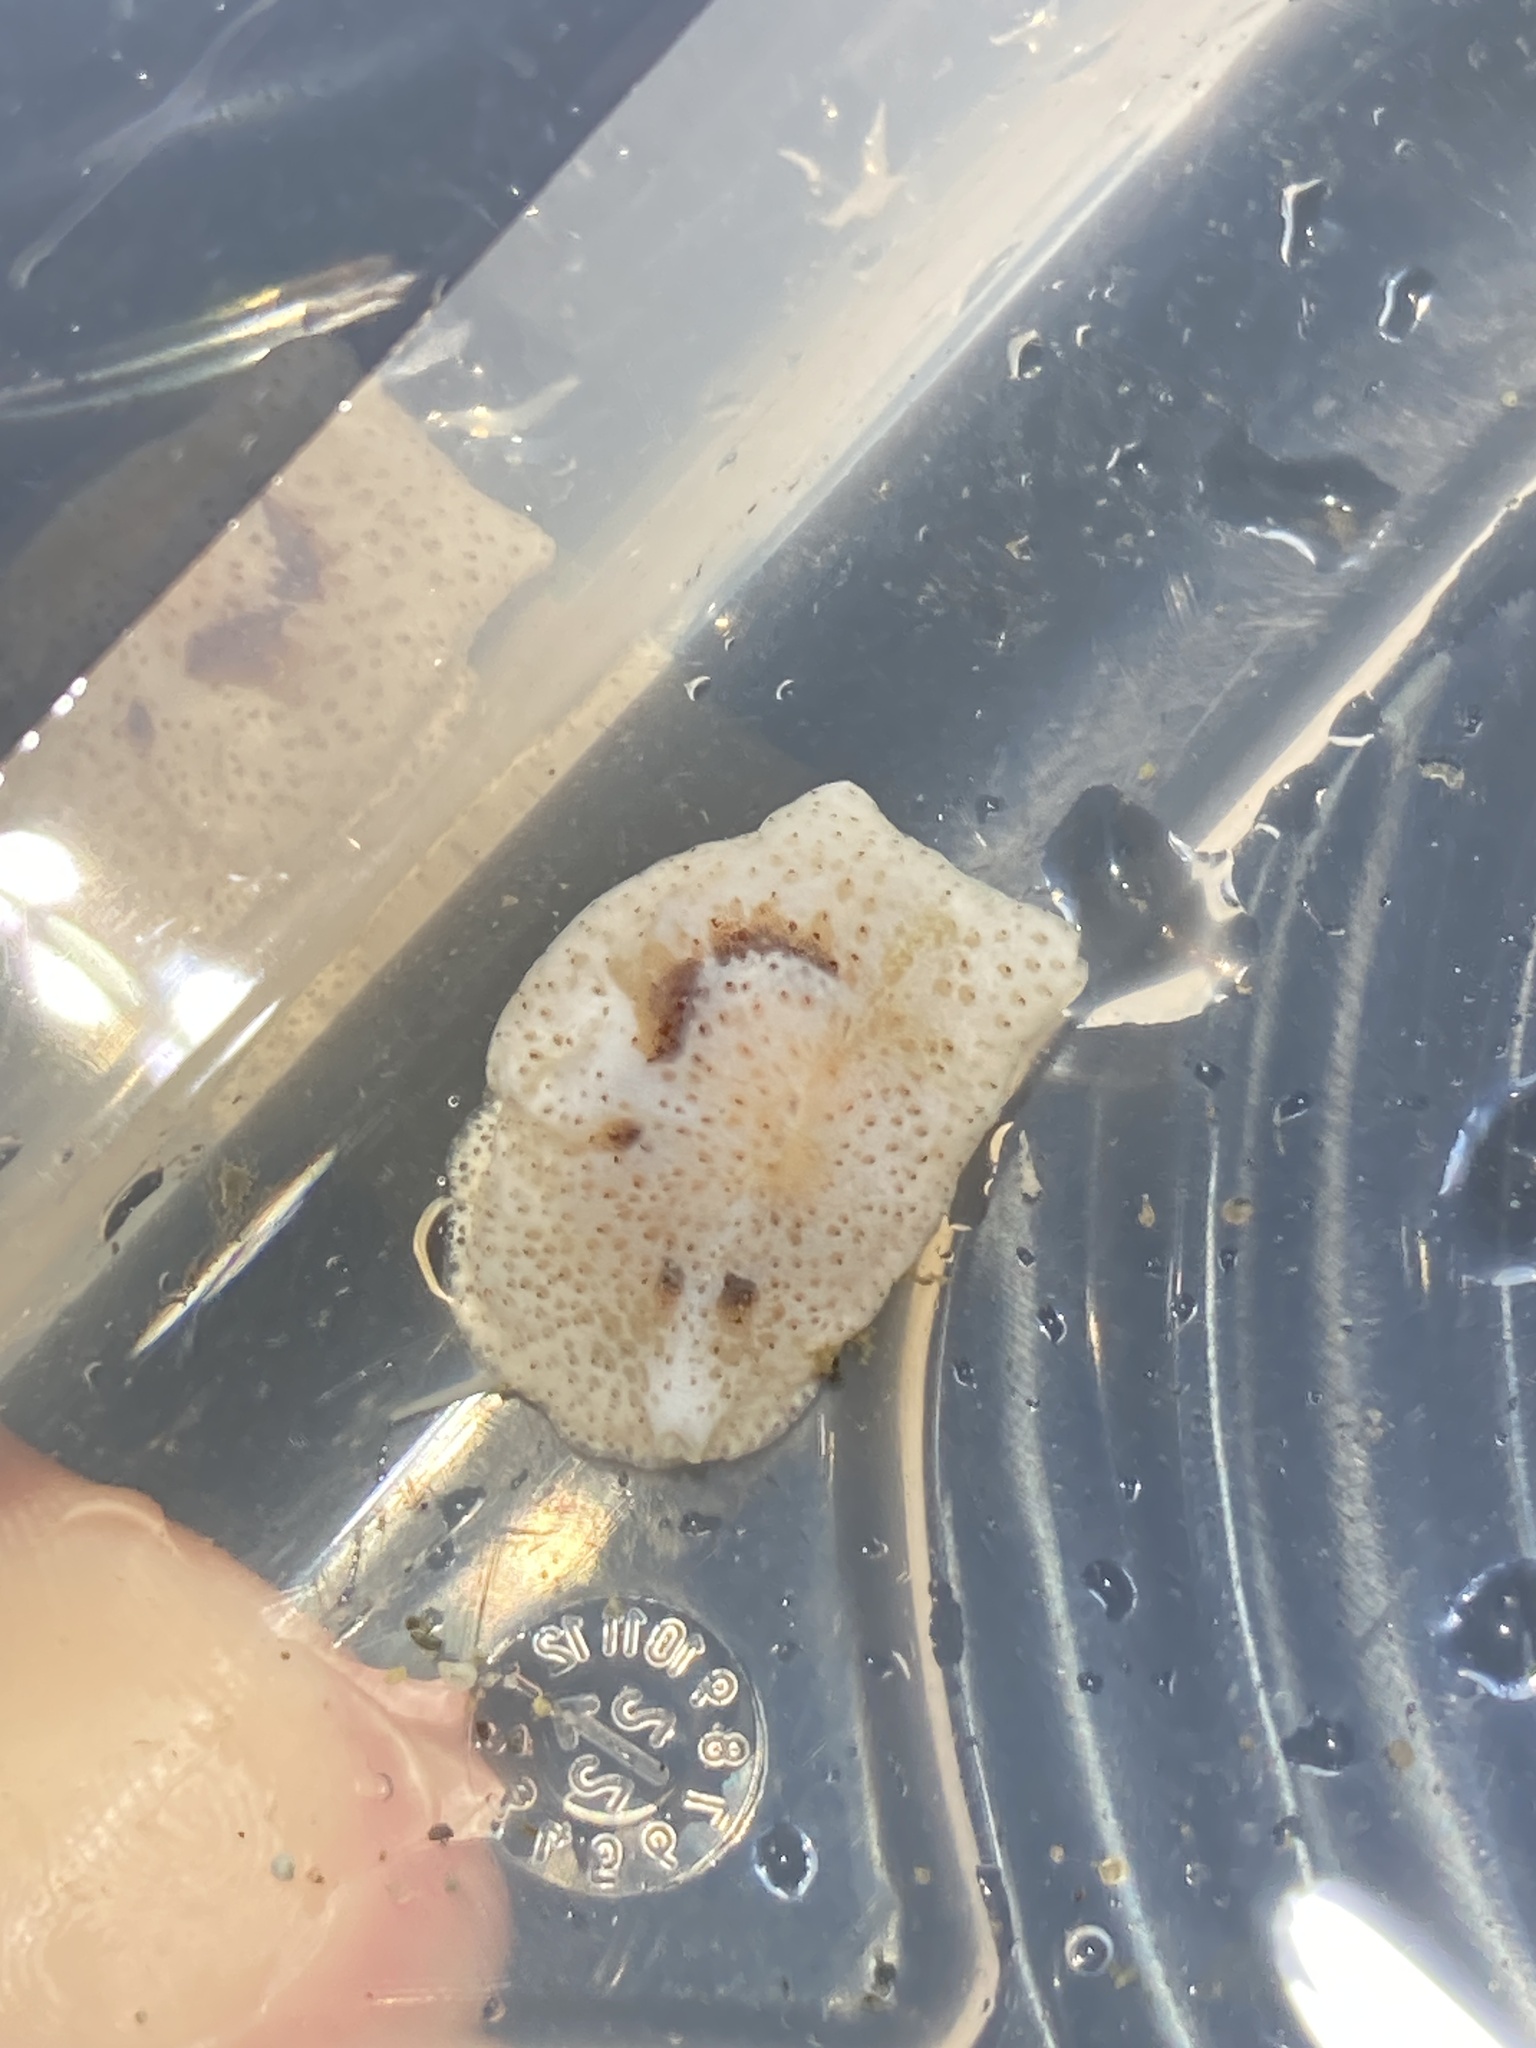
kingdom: Animalia
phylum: Mollusca
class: Gastropoda
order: Littorinimorpha
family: Velutinidae
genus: Marsenina
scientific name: Marsenina zadei
